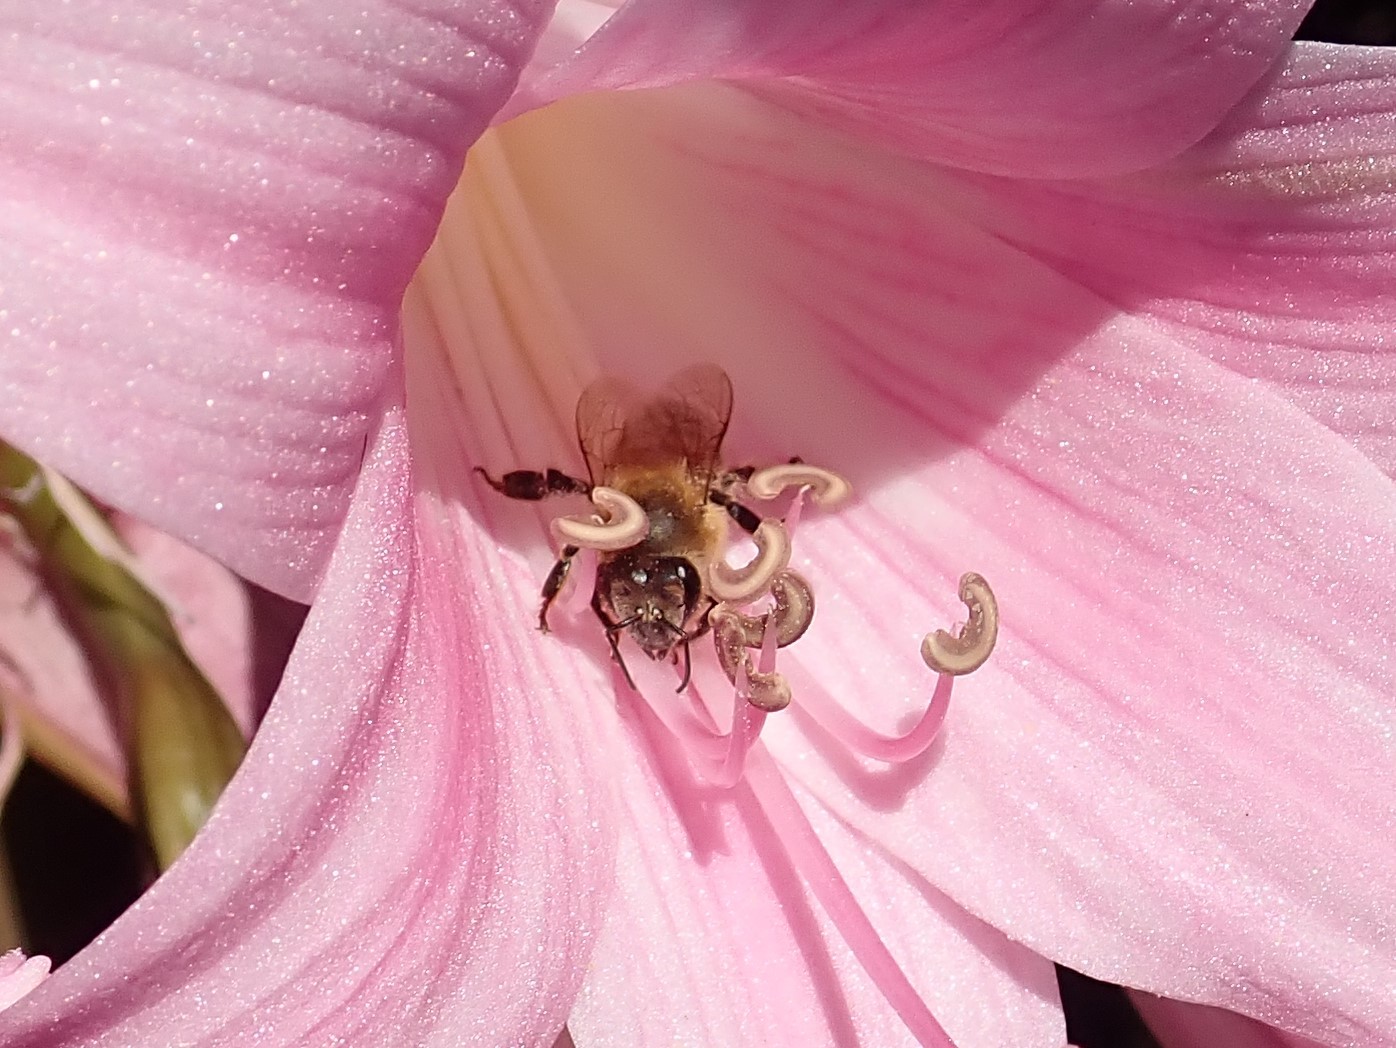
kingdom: Animalia
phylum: Arthropoda
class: Insecta
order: Hymenoptera
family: Apidae
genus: Apis
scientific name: Apis mellifera
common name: Honey bee
